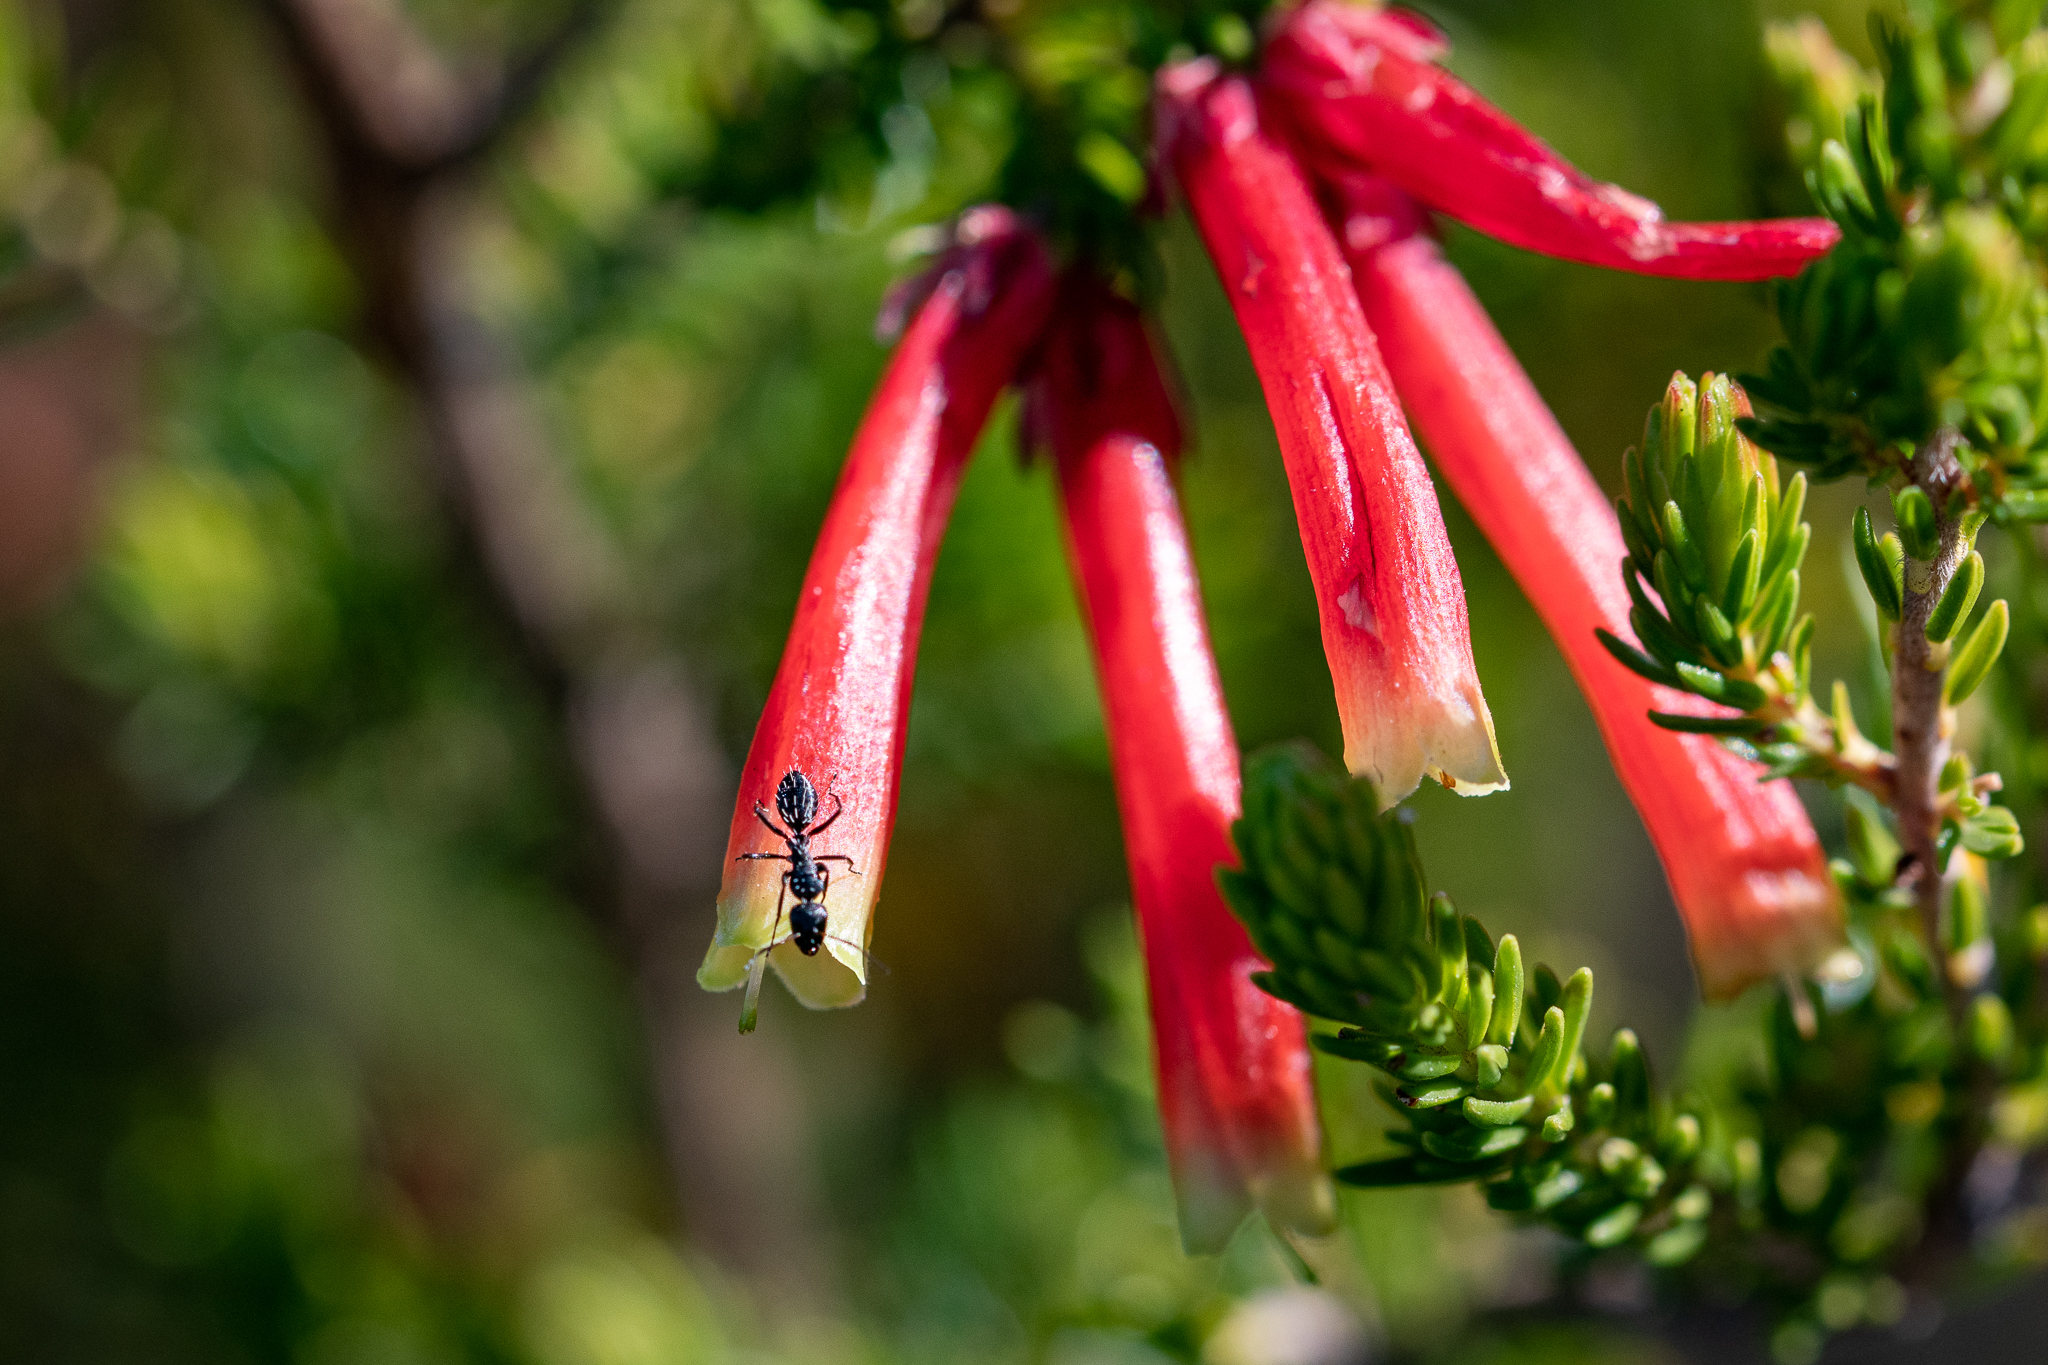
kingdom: Animalia
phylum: Arthropoda
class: Insecta
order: Hymenoptera
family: Formicidae
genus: Camponotus
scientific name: Camponotus niveosetosus
